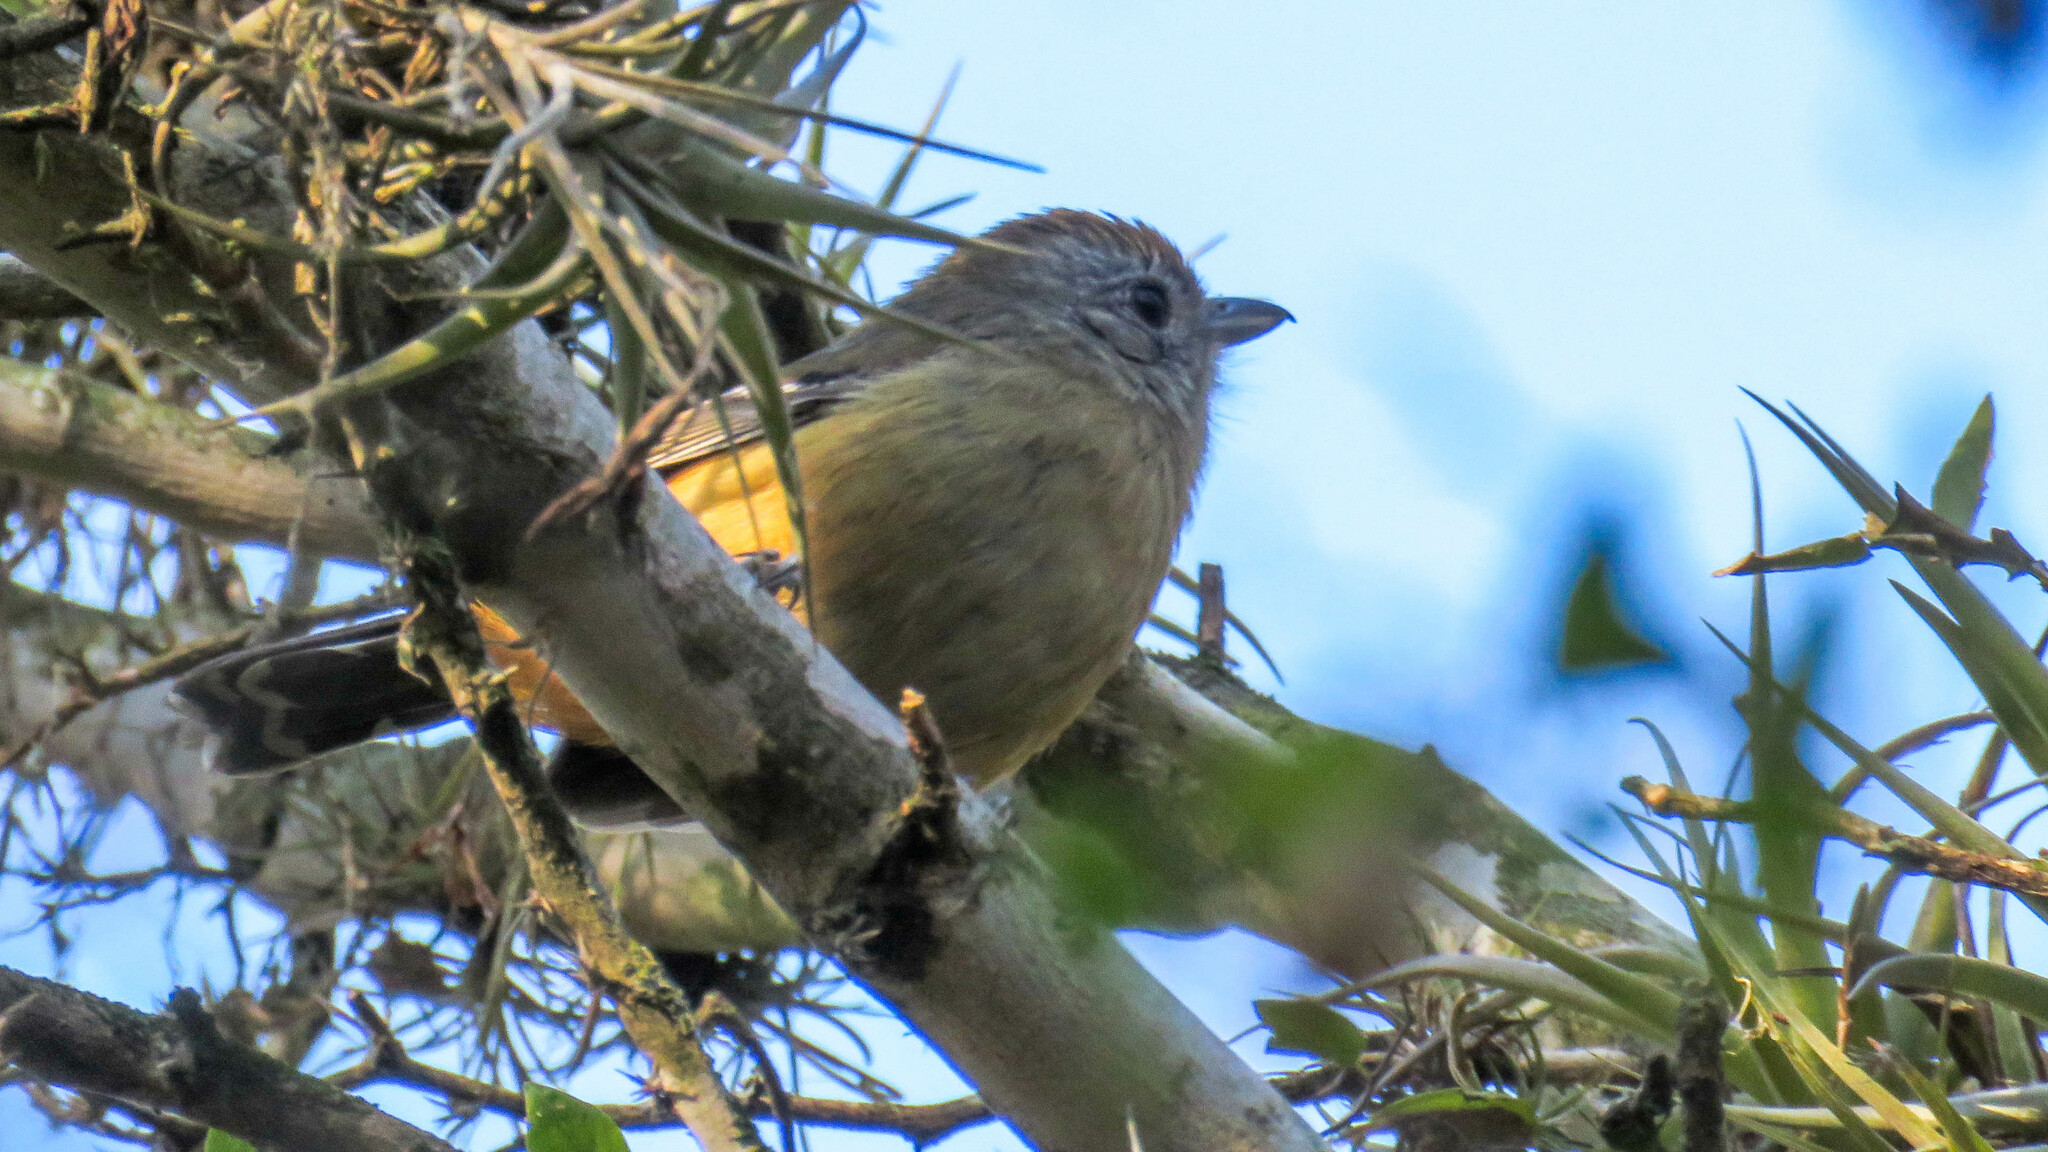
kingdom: Animalia
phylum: Chordata
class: Aves
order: Passeriformes
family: Thamnophilidae
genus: Thamnophilus
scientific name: Thamnophilus caerulescens
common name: Variable antshrike
